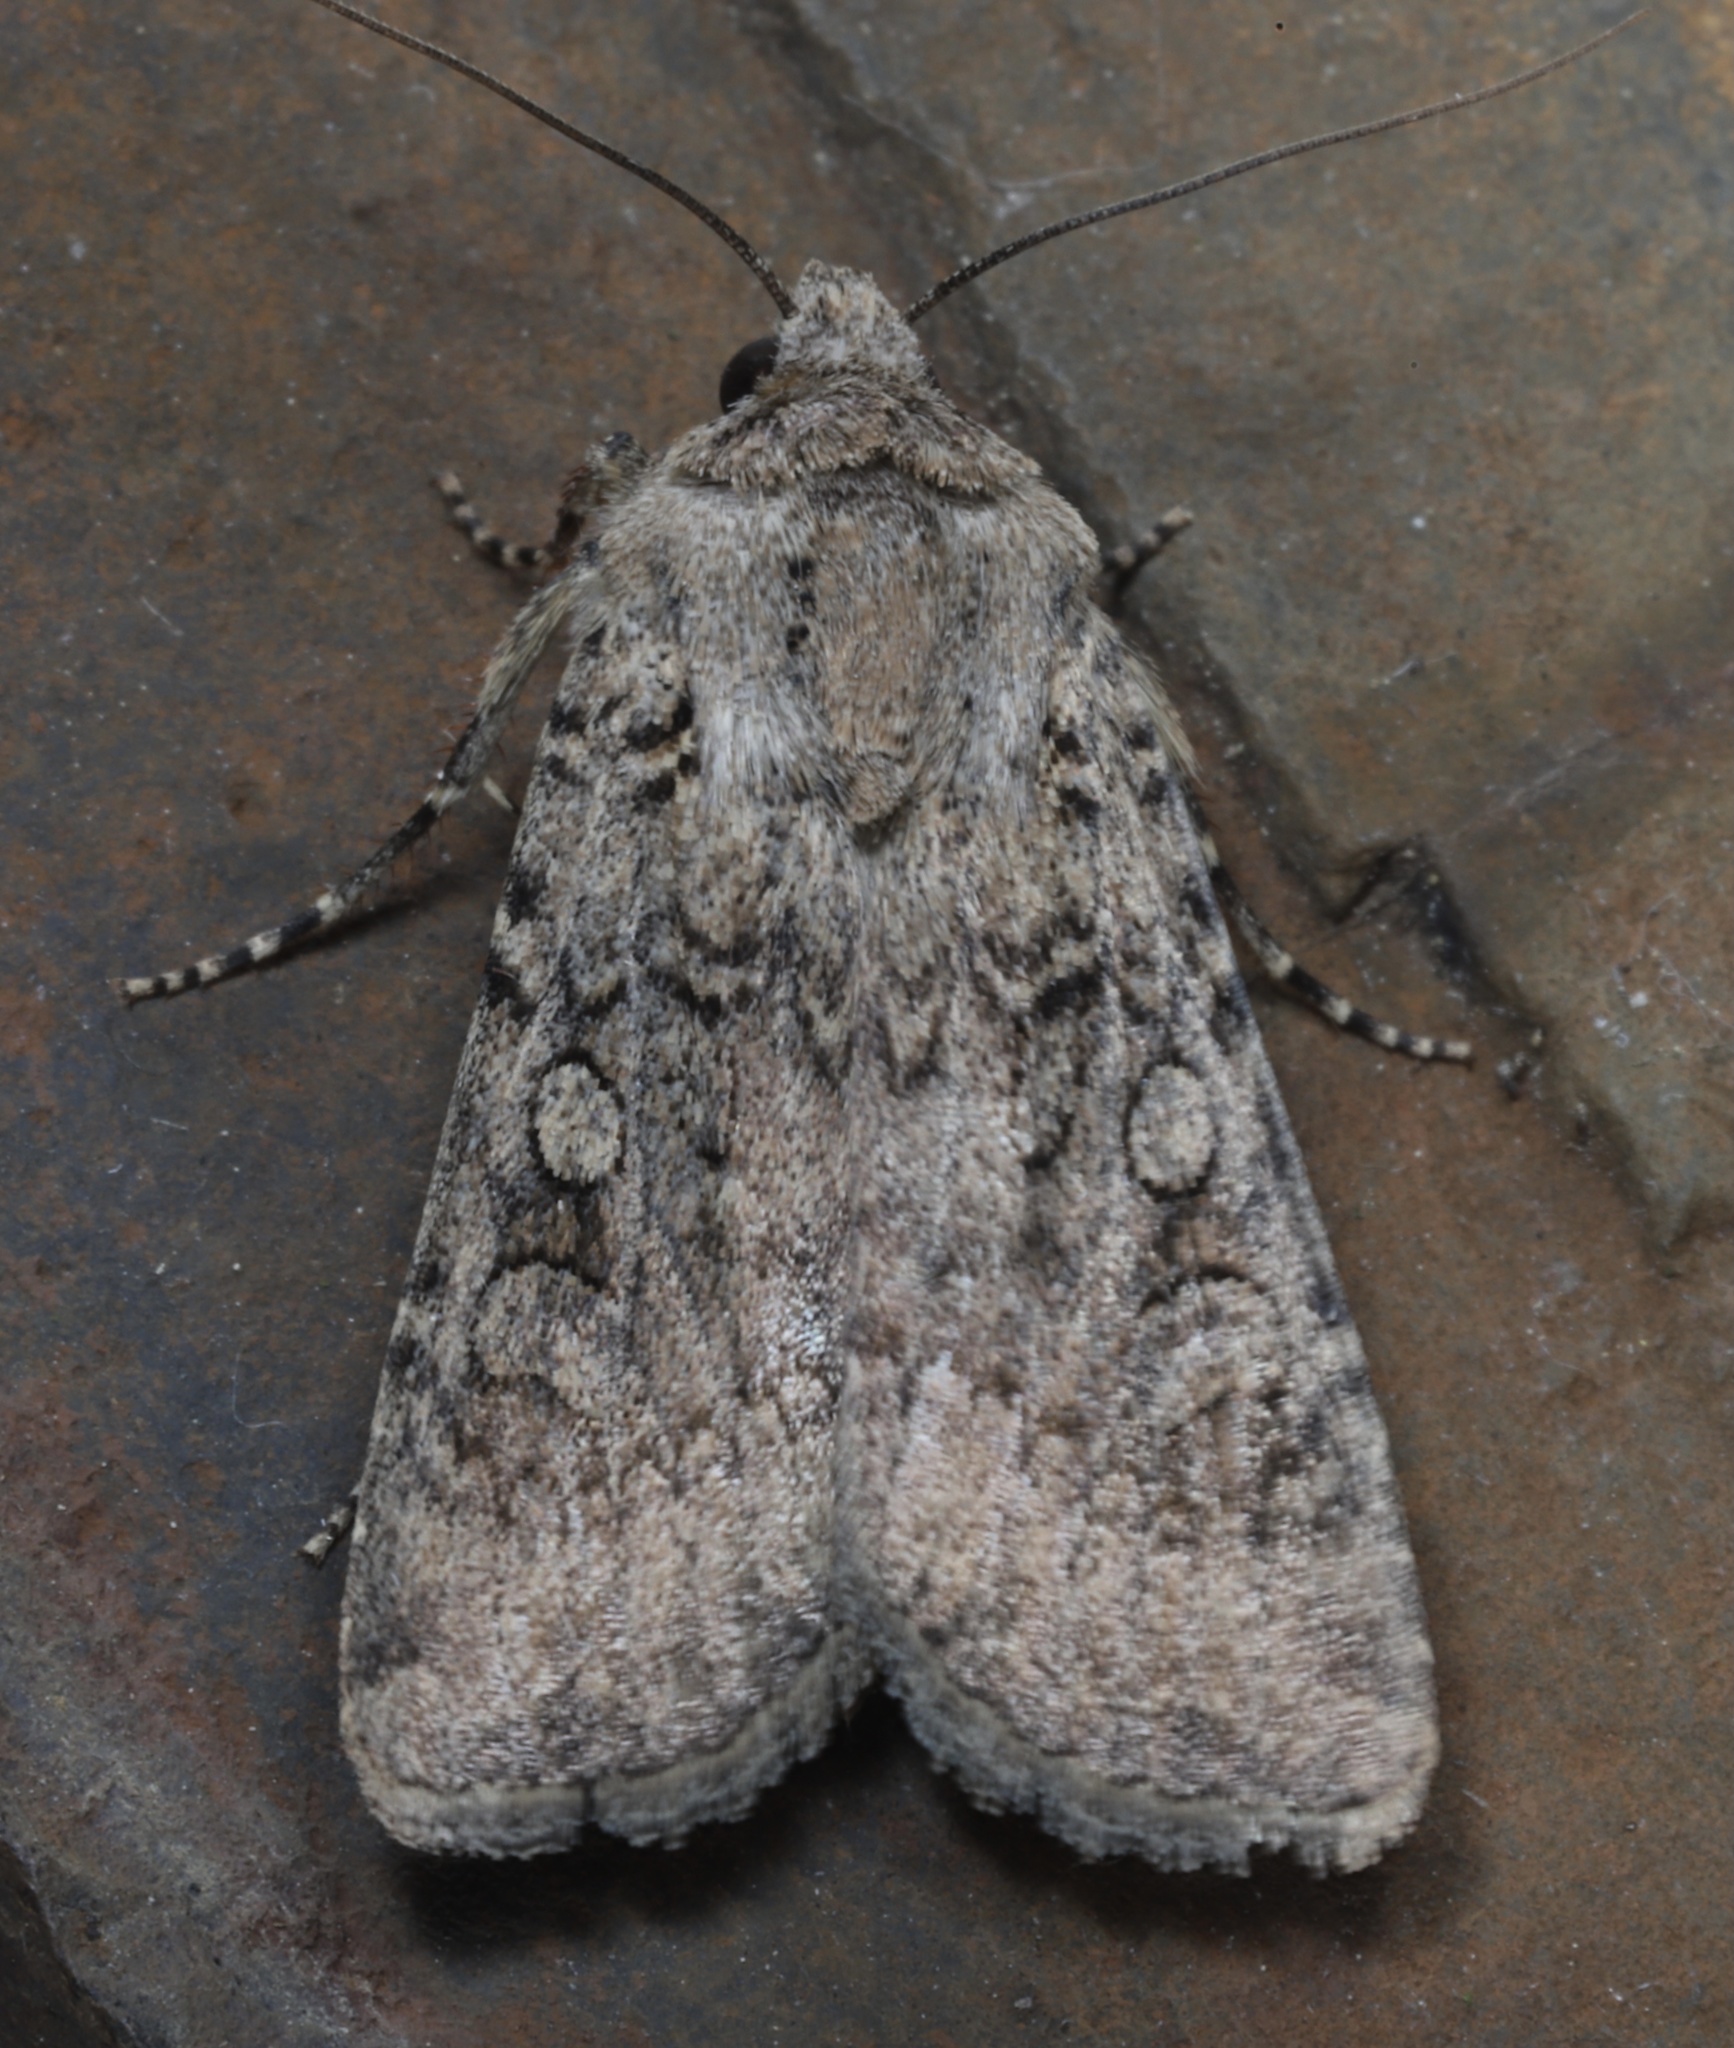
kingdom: Animalia
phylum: Arthropoda
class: Insecta
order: Lepidoptera
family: Noctuidae
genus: Euxoa
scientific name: Euxoa messoria
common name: Darksided cutworm
